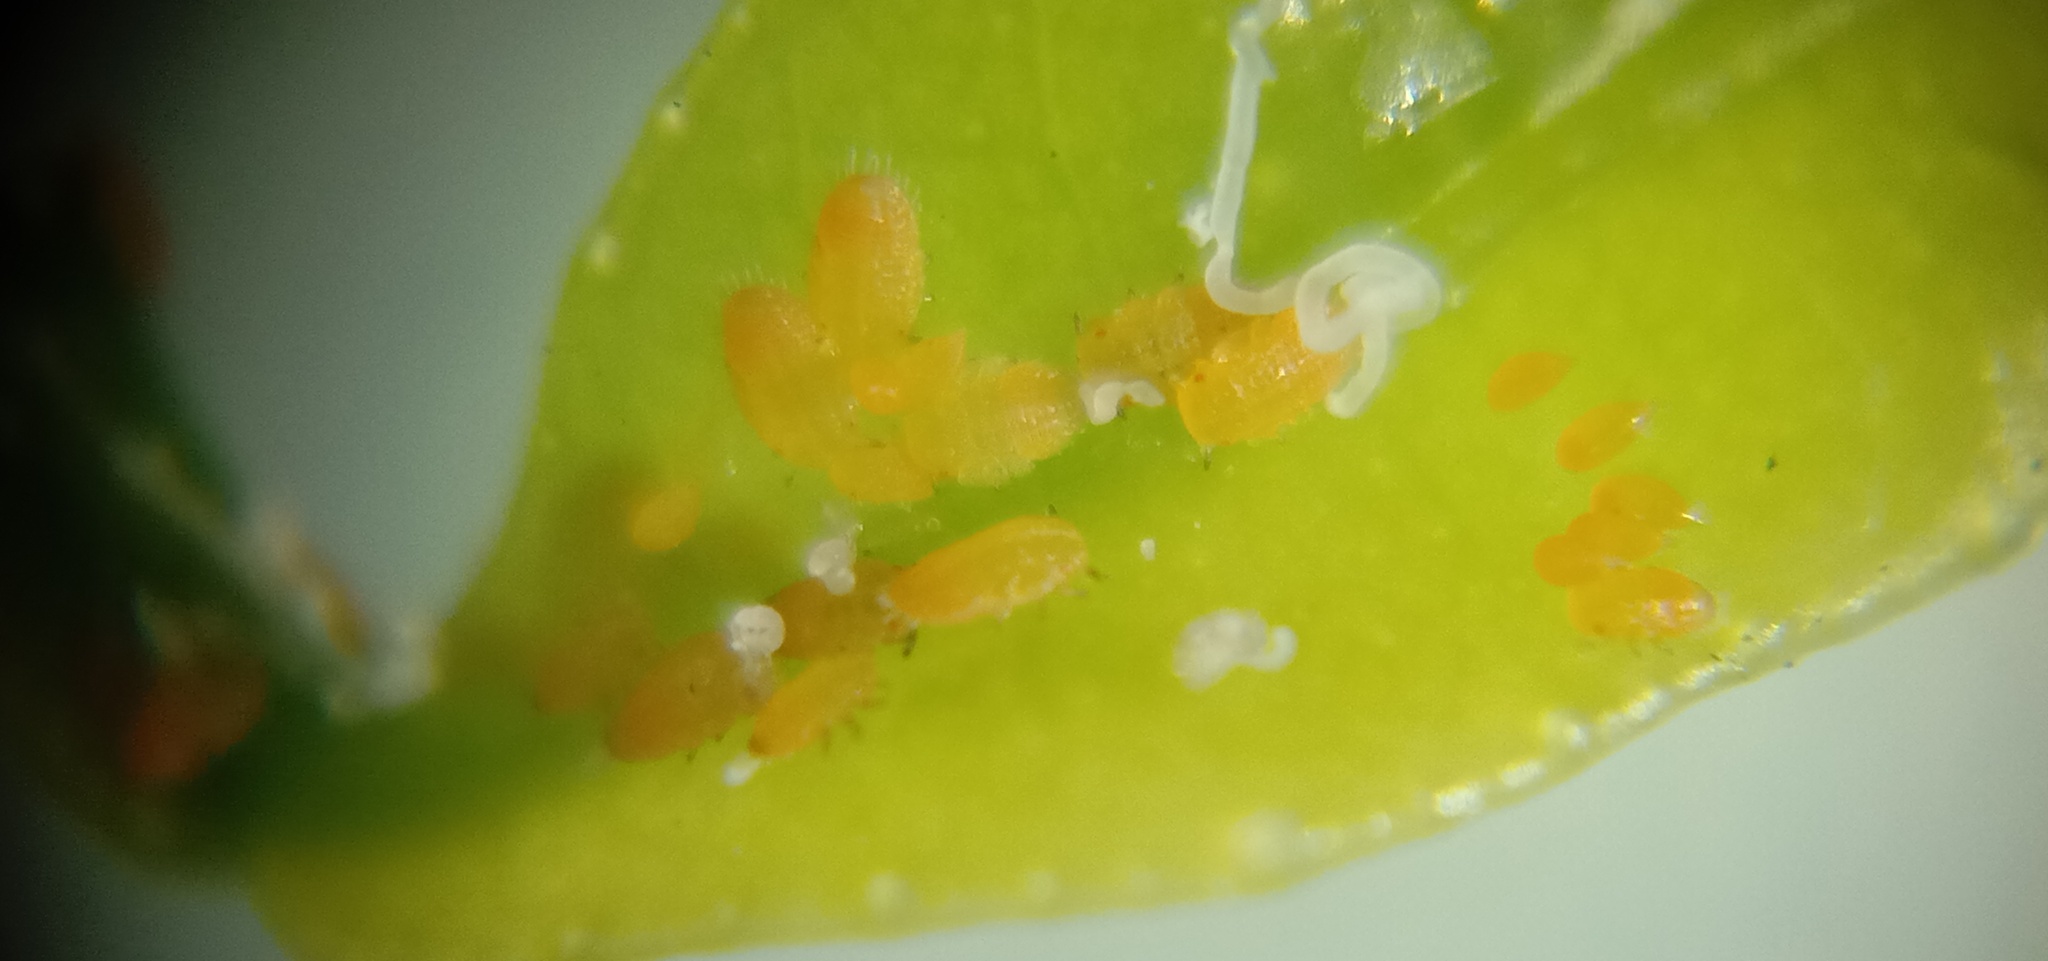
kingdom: Animalia
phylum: Arthropoda
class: Insecta
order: Hemiptera
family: Liviidae
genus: Diaphorina
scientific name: Diaphorina citri
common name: Asian citrus psyllid
